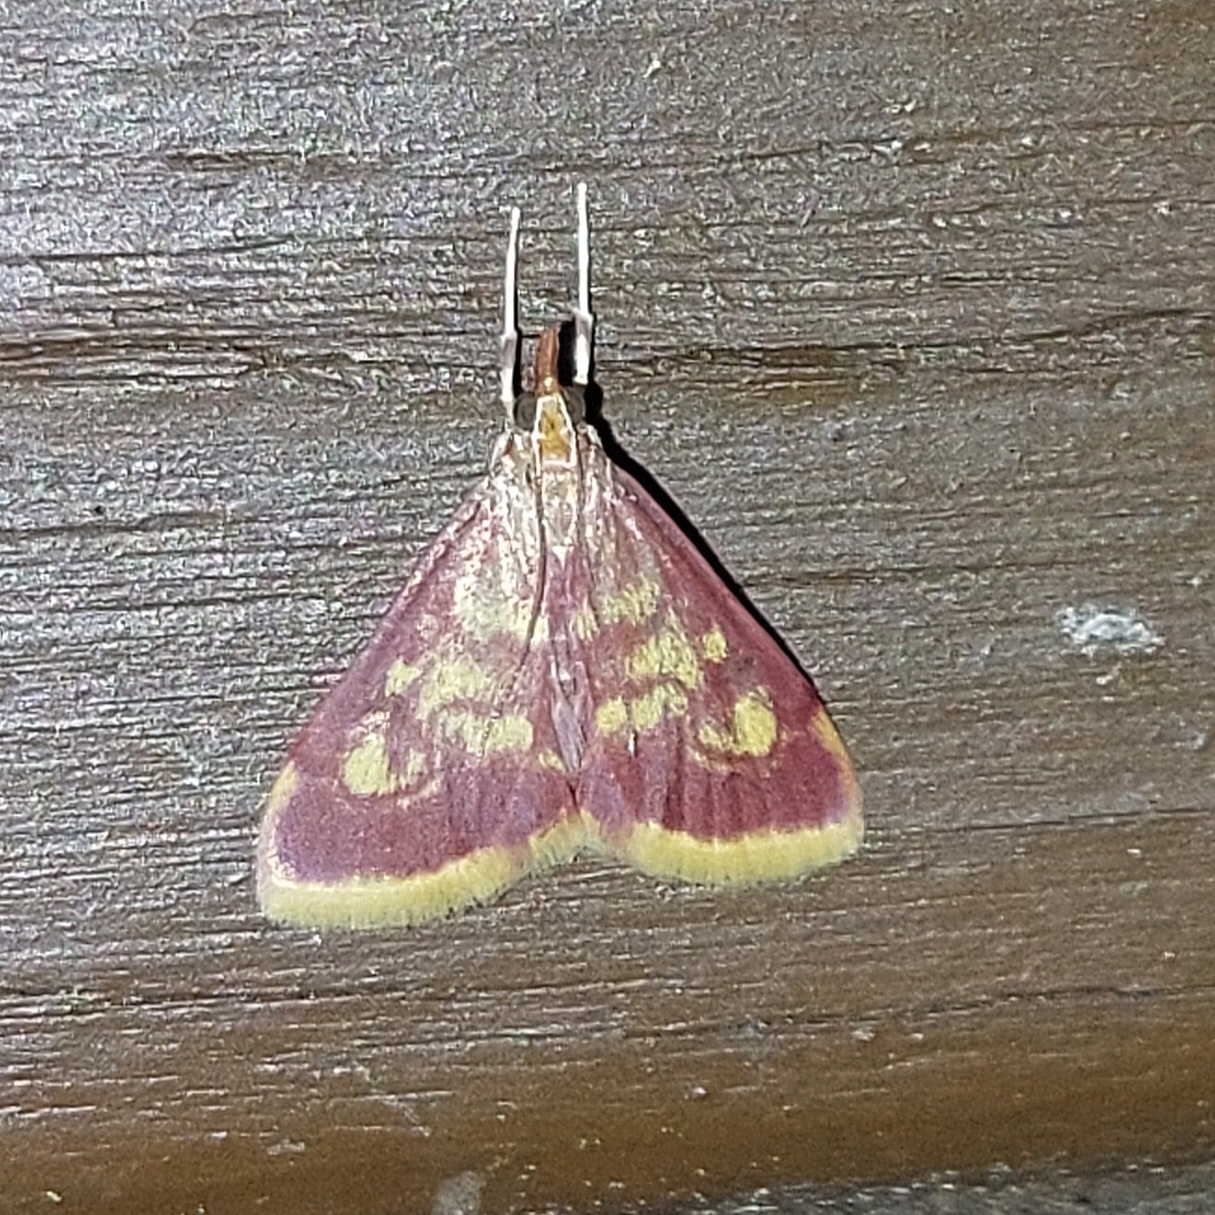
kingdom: Animalia
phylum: Arthropoda
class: Insecta
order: Lepidoptera
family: Crambidae
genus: Pyrausta
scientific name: Pyrausta acrionalis
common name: Mint-loving pyrausta moth
